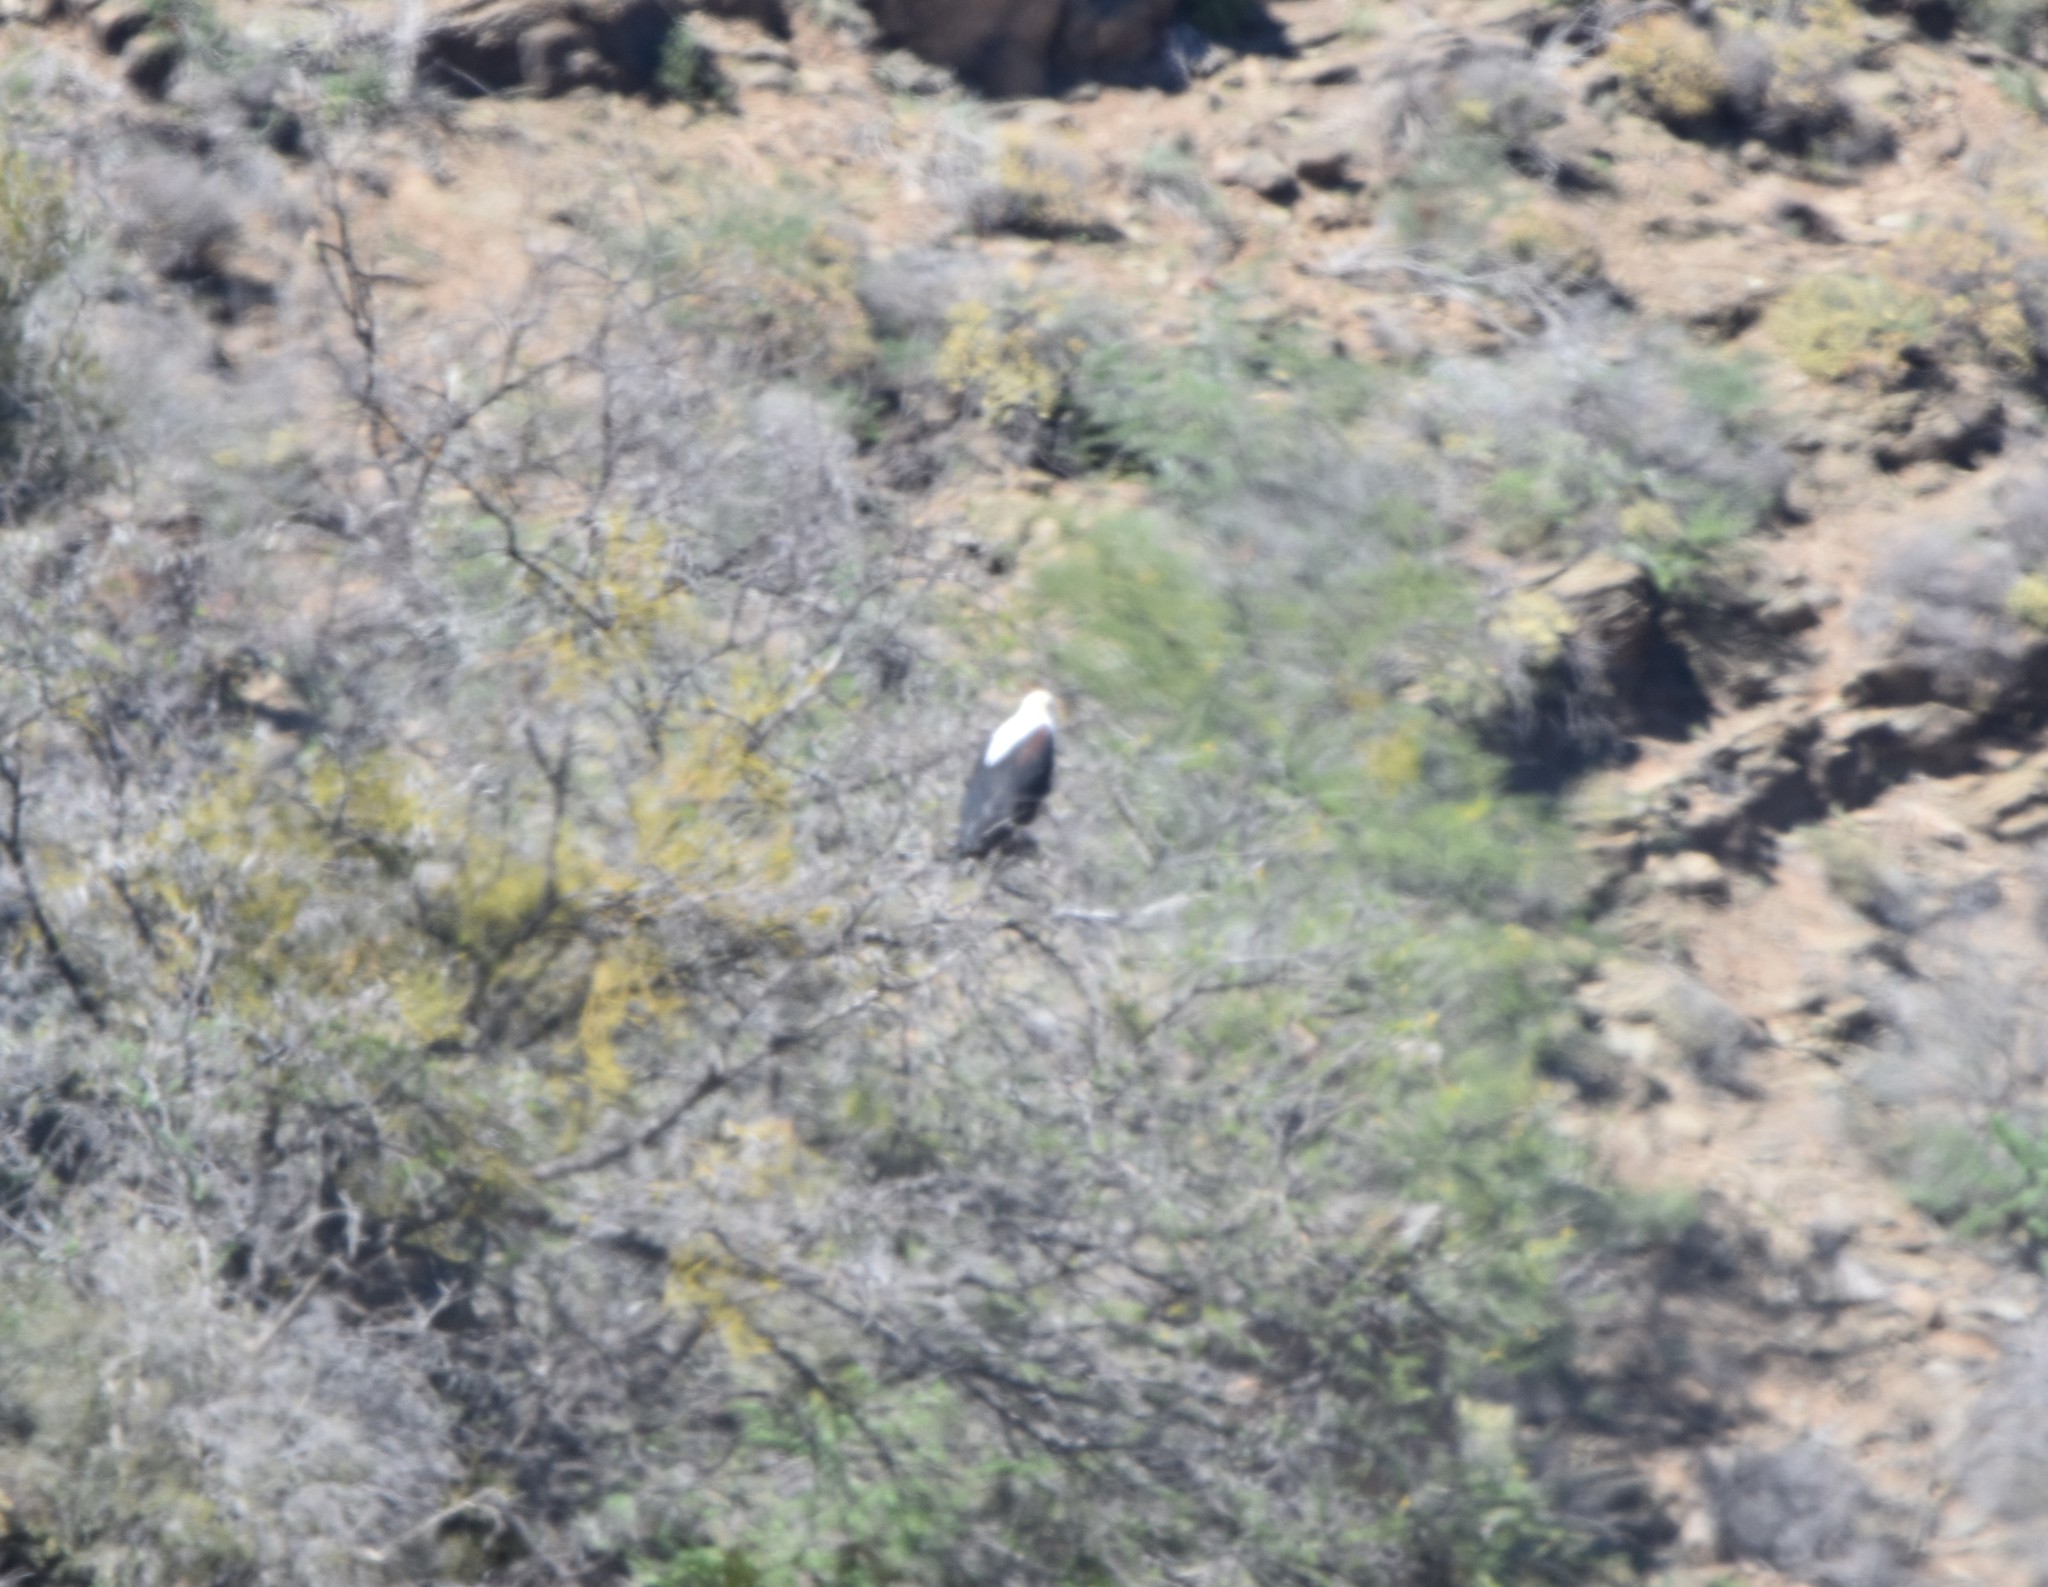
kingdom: Animalia
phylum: Chordata
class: Aves
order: Accipitriformes
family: Accipitridae
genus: Haliaeetus
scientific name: Haliaeetus vocifer
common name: African fish eagle
